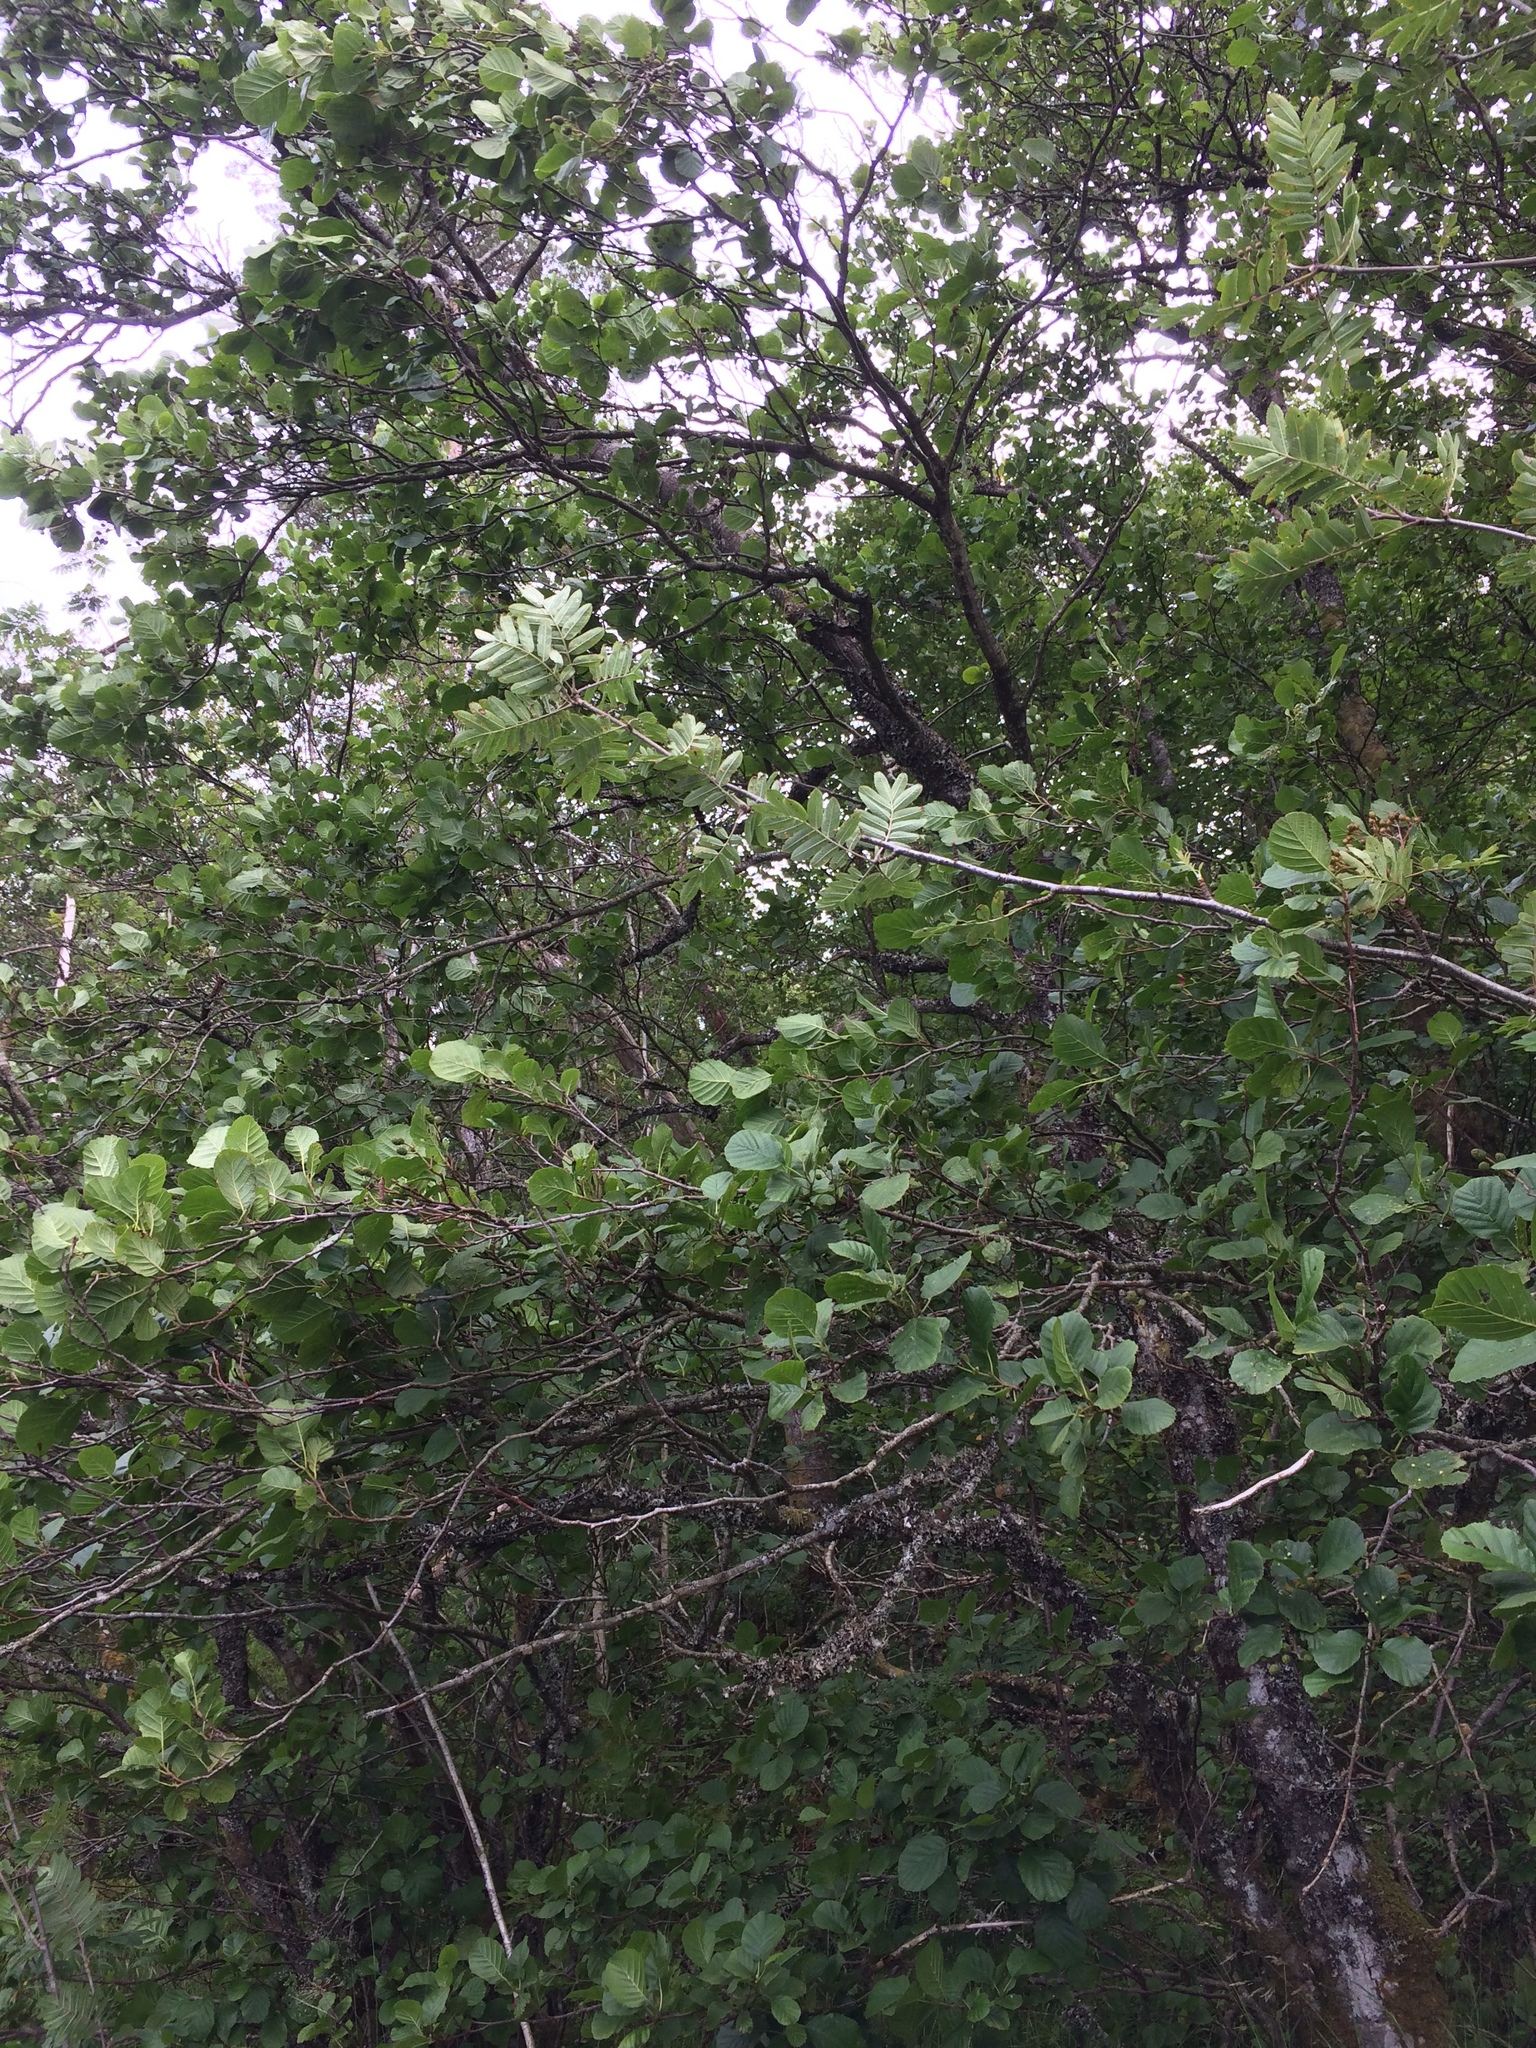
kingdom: Plantae
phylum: Tracheophyta
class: Magnoliopsida
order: Fagales
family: Betulaceae
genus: Alnus
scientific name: Alnus glutinosa
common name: Black alder
